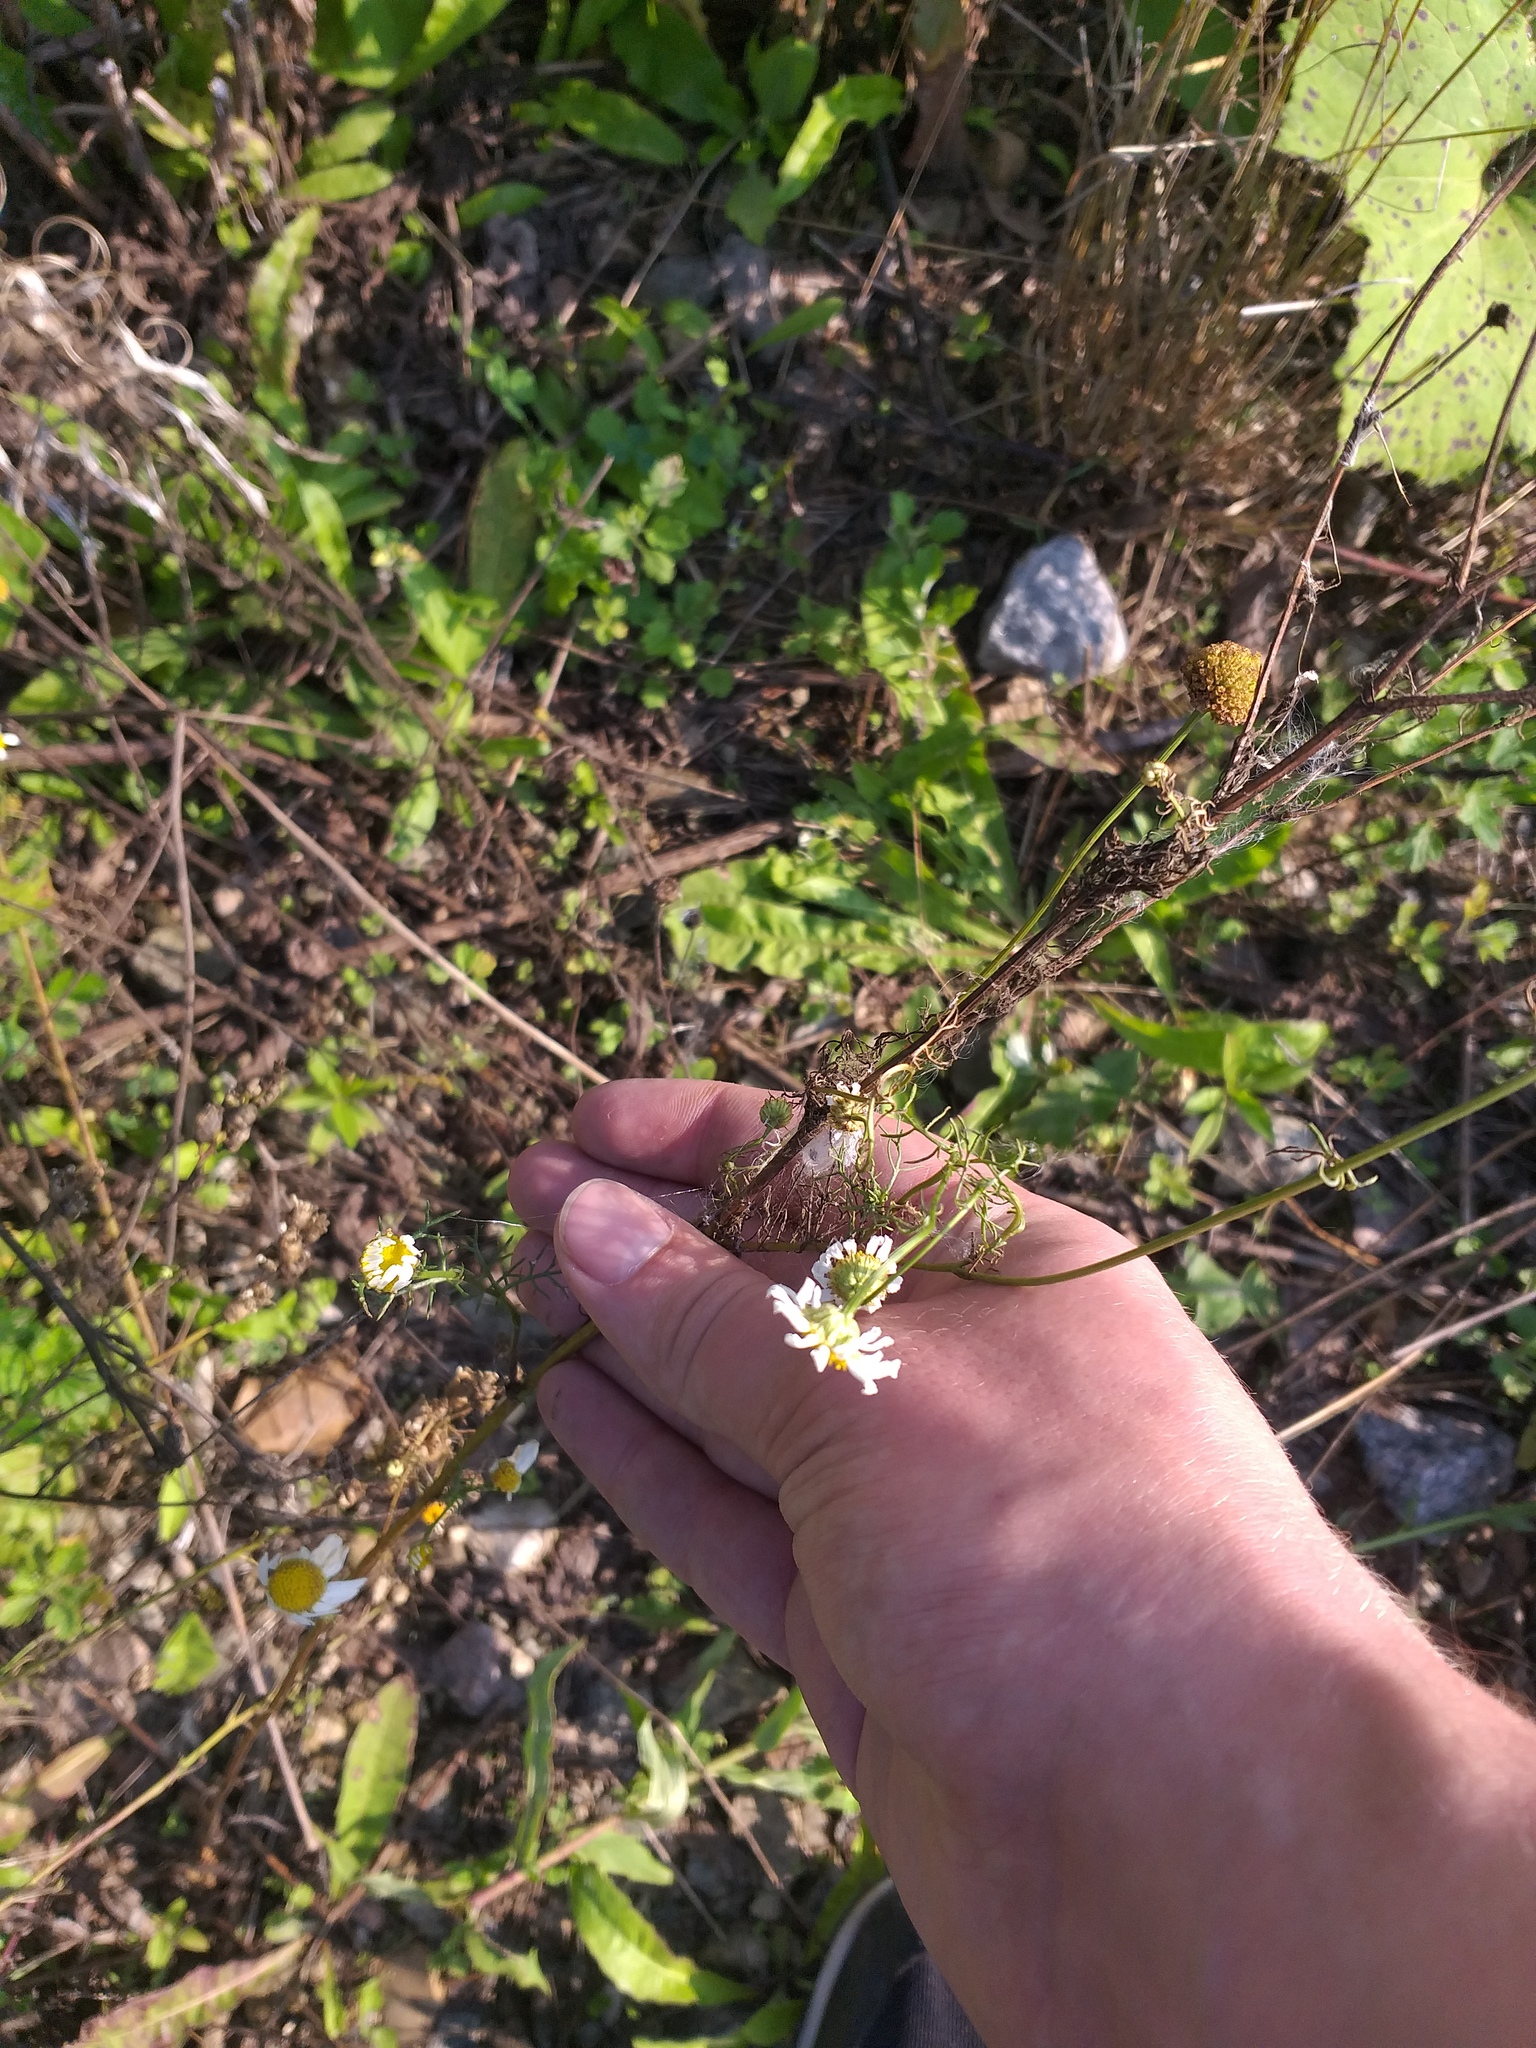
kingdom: Plantae
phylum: Tracheophyta
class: Magnoliopsida
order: Asterales
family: Asteraceae
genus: Tripleurospermum
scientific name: Tripleurospermum inodorum
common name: Scentless mayweed
